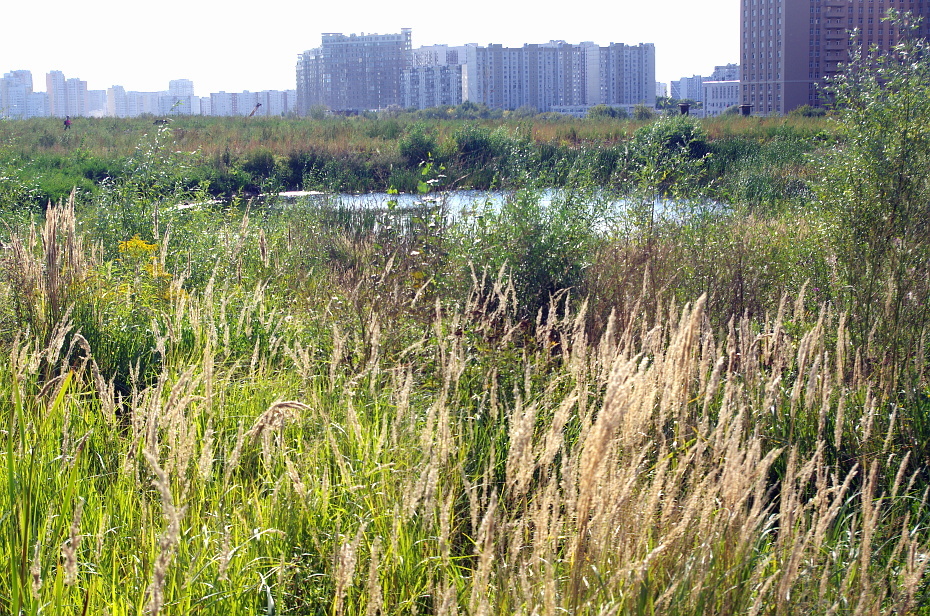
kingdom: Plantae
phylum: Tracheophyta
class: Liliopsida
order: Poales
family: Poaceae
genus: Calamagrostis
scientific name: Calamagrostis epigejos
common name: Wood small-reed
